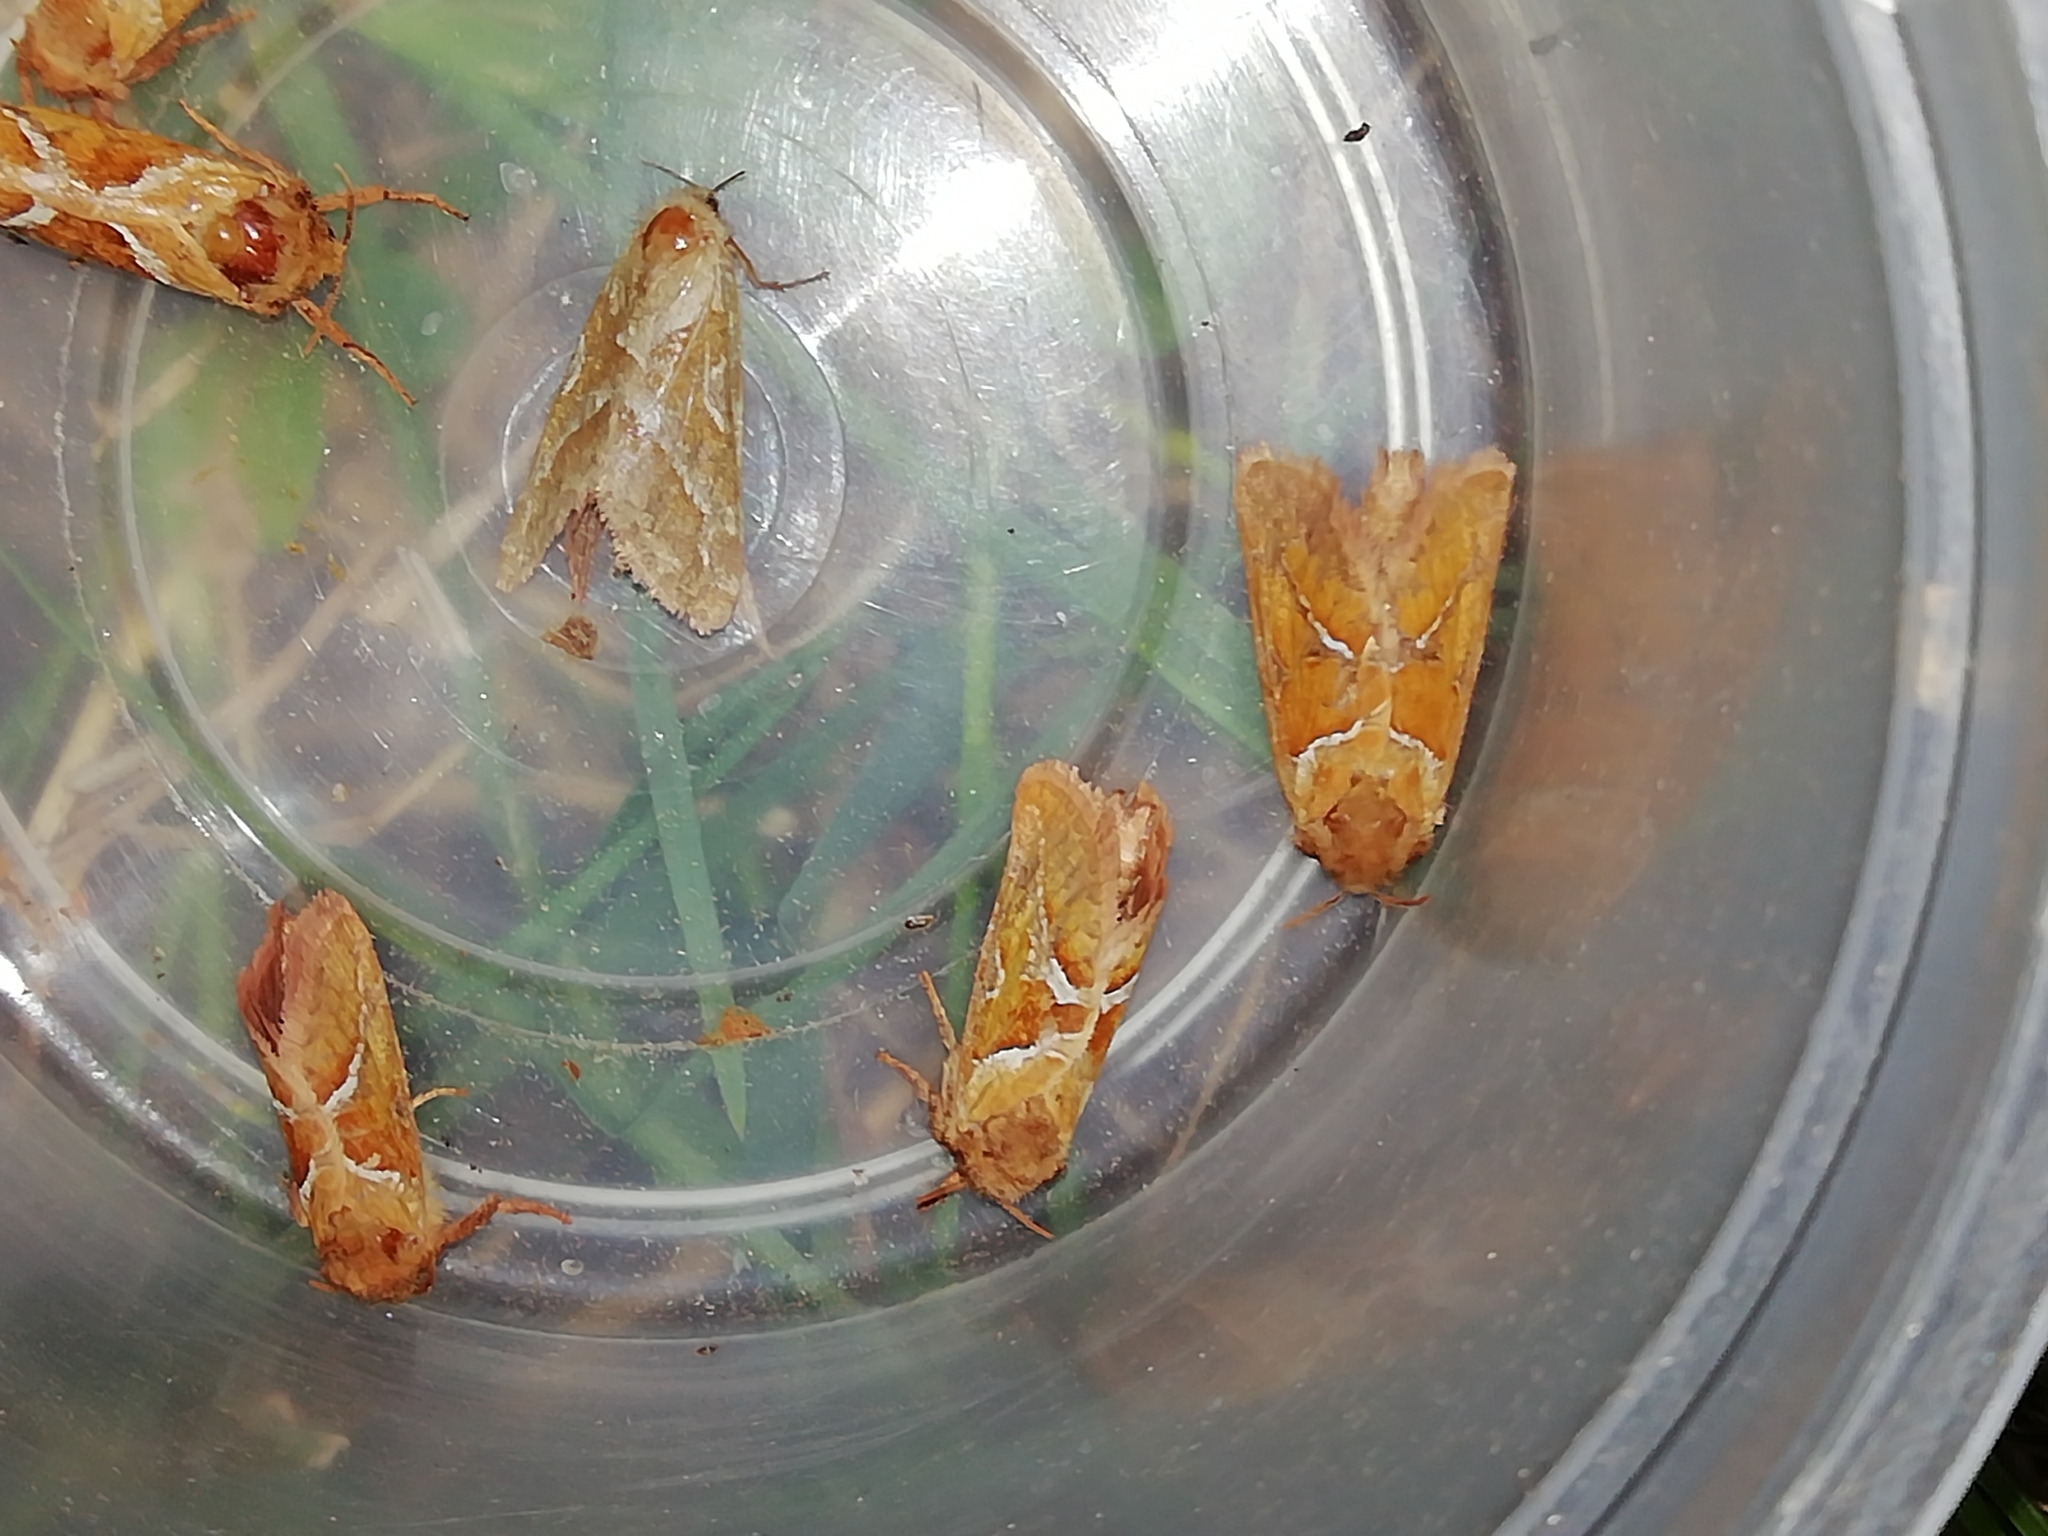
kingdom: Animalia
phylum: Arthropoda
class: Insecta
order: Lepidoptera
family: Hepialidae
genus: Triodia
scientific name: Triodia sylvina
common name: Orange swift
